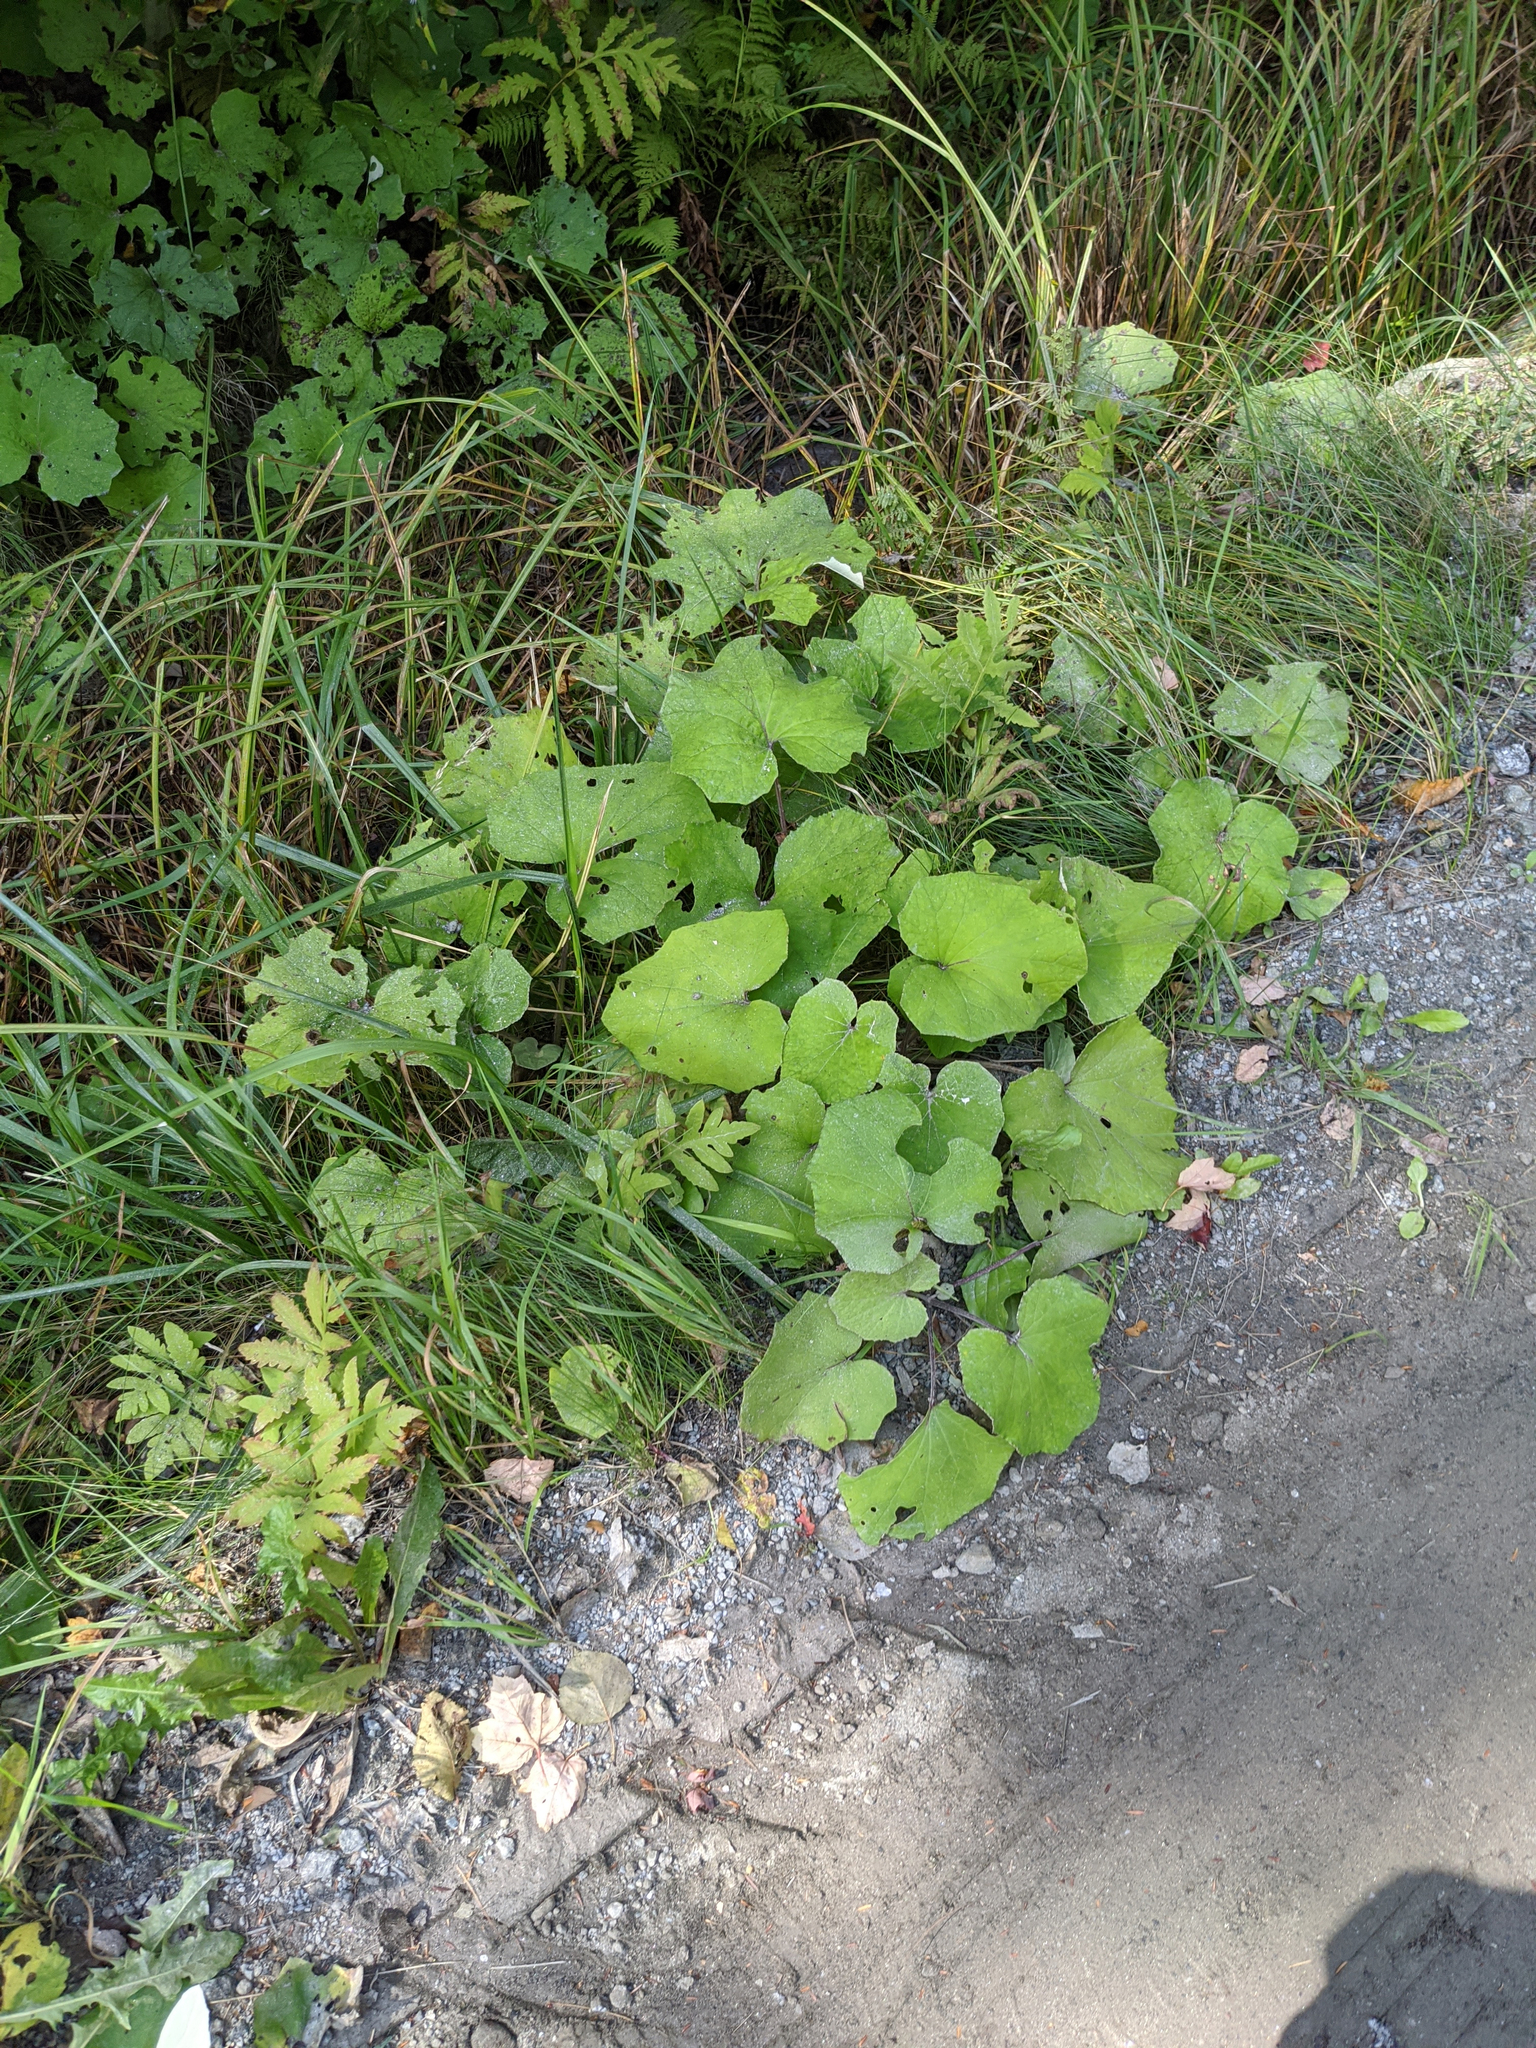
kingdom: Plantae
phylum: Tracheophyta
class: Magnoliopsida
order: Asterales
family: Asteraceae
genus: Tussilago
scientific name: Tussilago farfara
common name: Coltsfoot
